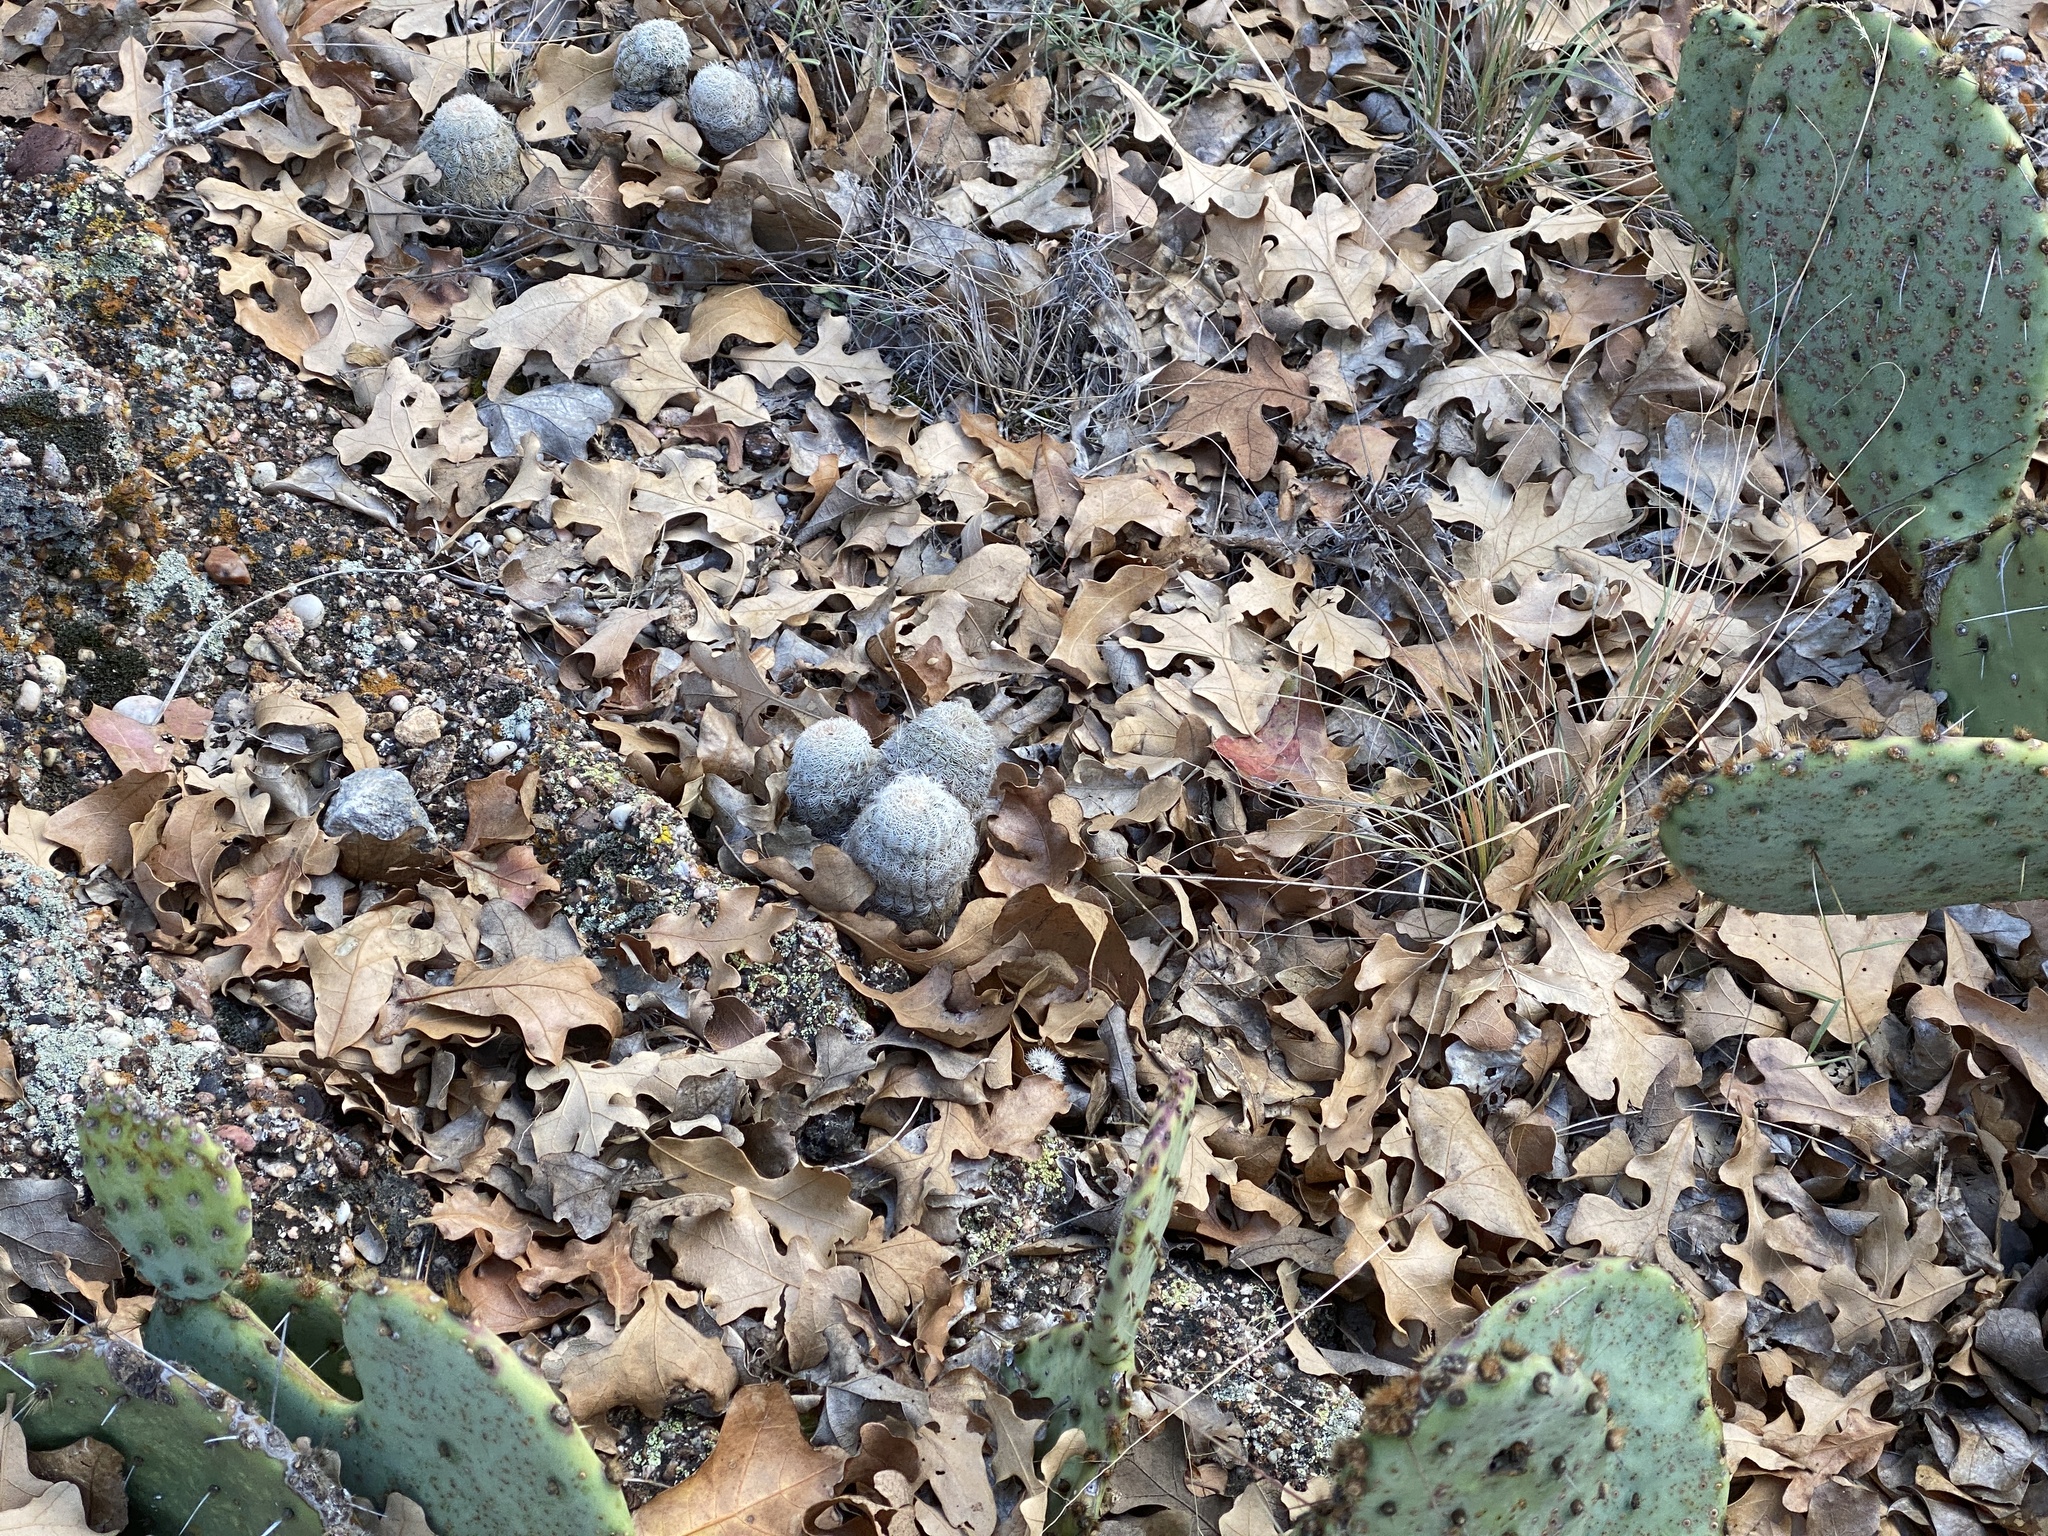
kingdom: Plantae
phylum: Tracheophyta
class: Magnoliopsida
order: Caryophyllales
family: Cactaceae
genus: Echinocereus
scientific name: Echinocereus reichenbachii
